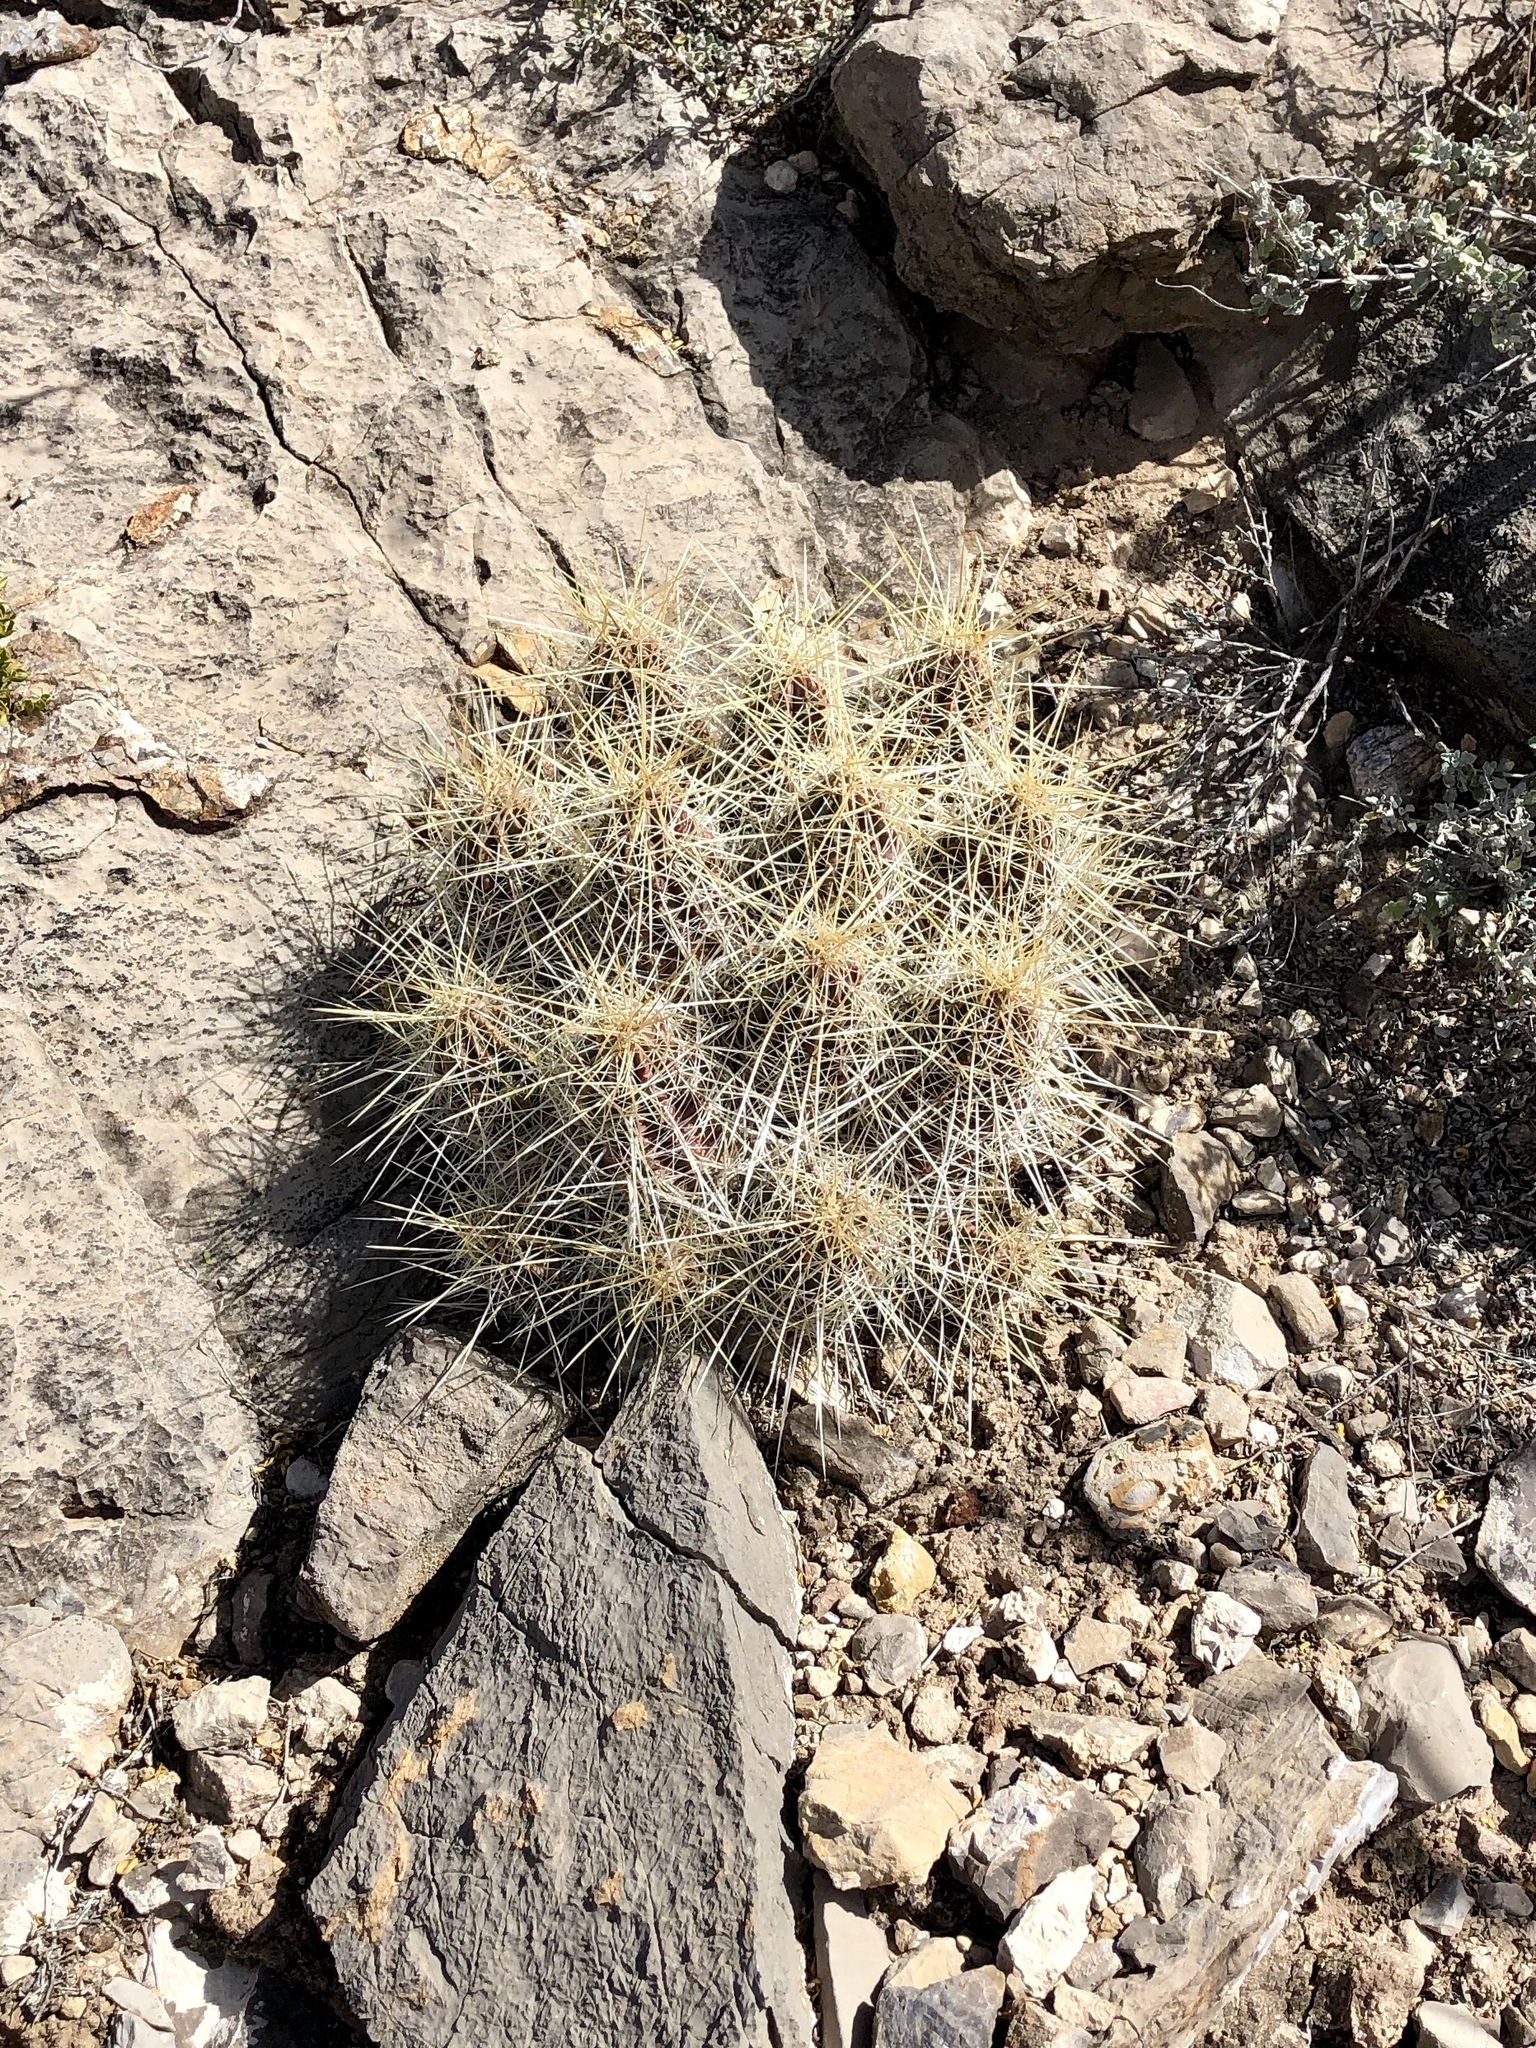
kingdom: Plantae
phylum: Tracheophyta
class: Magnoliopsida
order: Caryophyllales
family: Cactaceae
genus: Echinocereus
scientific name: Echinocereus stramineus
